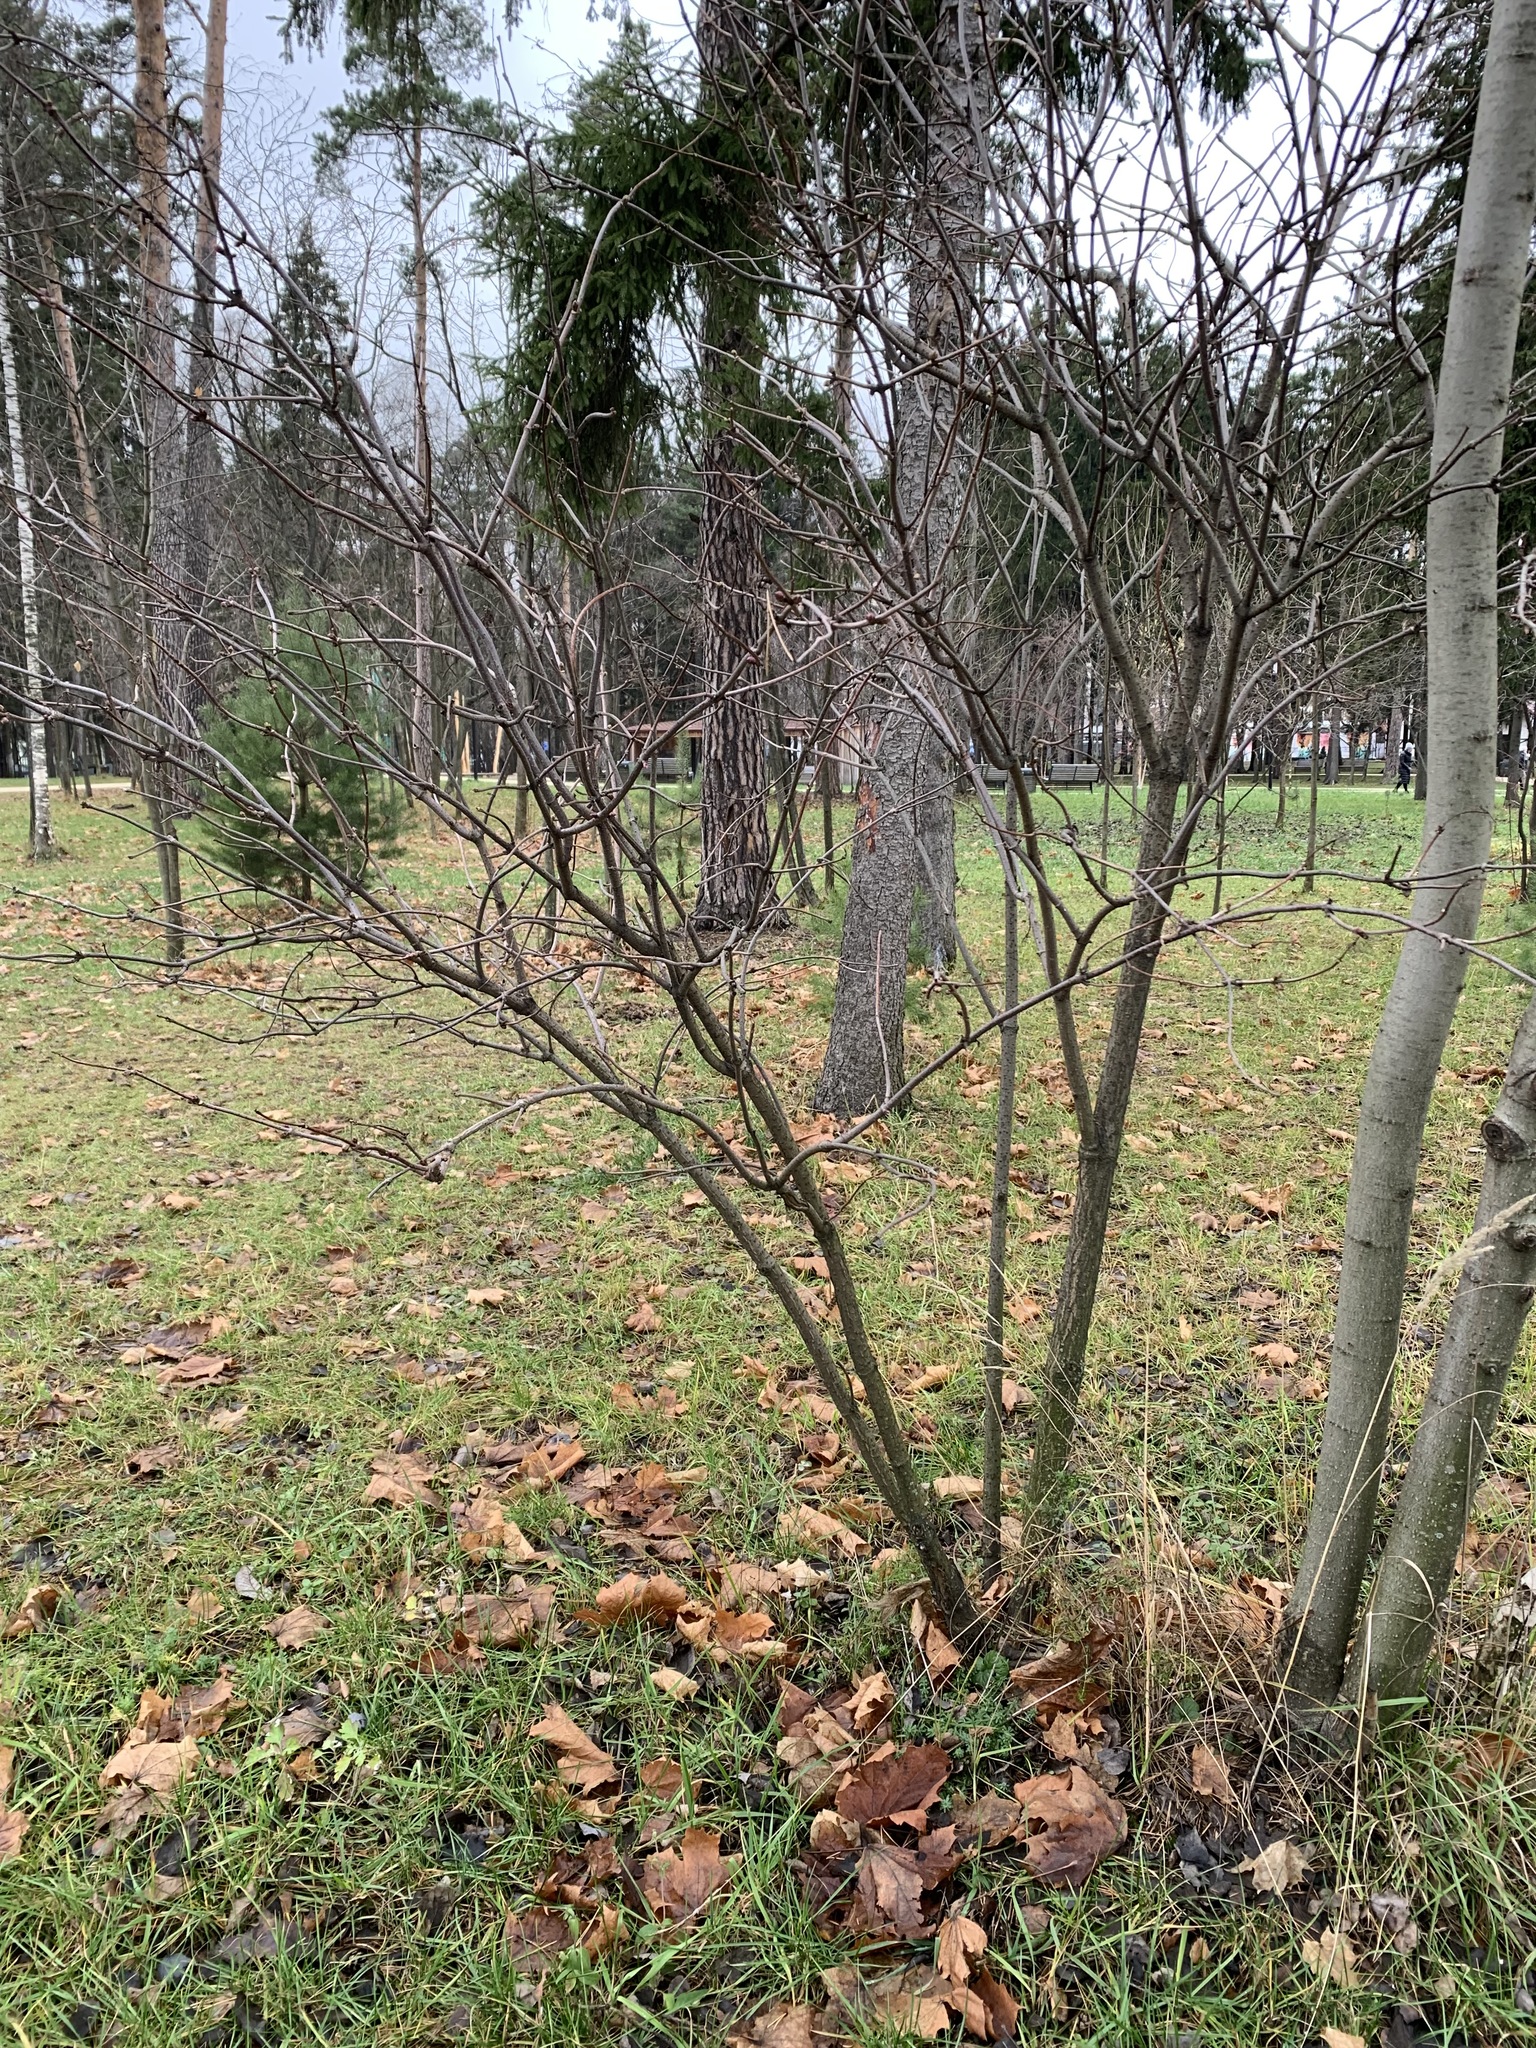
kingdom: Plantae
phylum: Tracheophyta
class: Magnoliopsida
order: Dipsacales
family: Viburnaceae
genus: Sambucus
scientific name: Sambucus racemosa
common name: Red-berried elder
